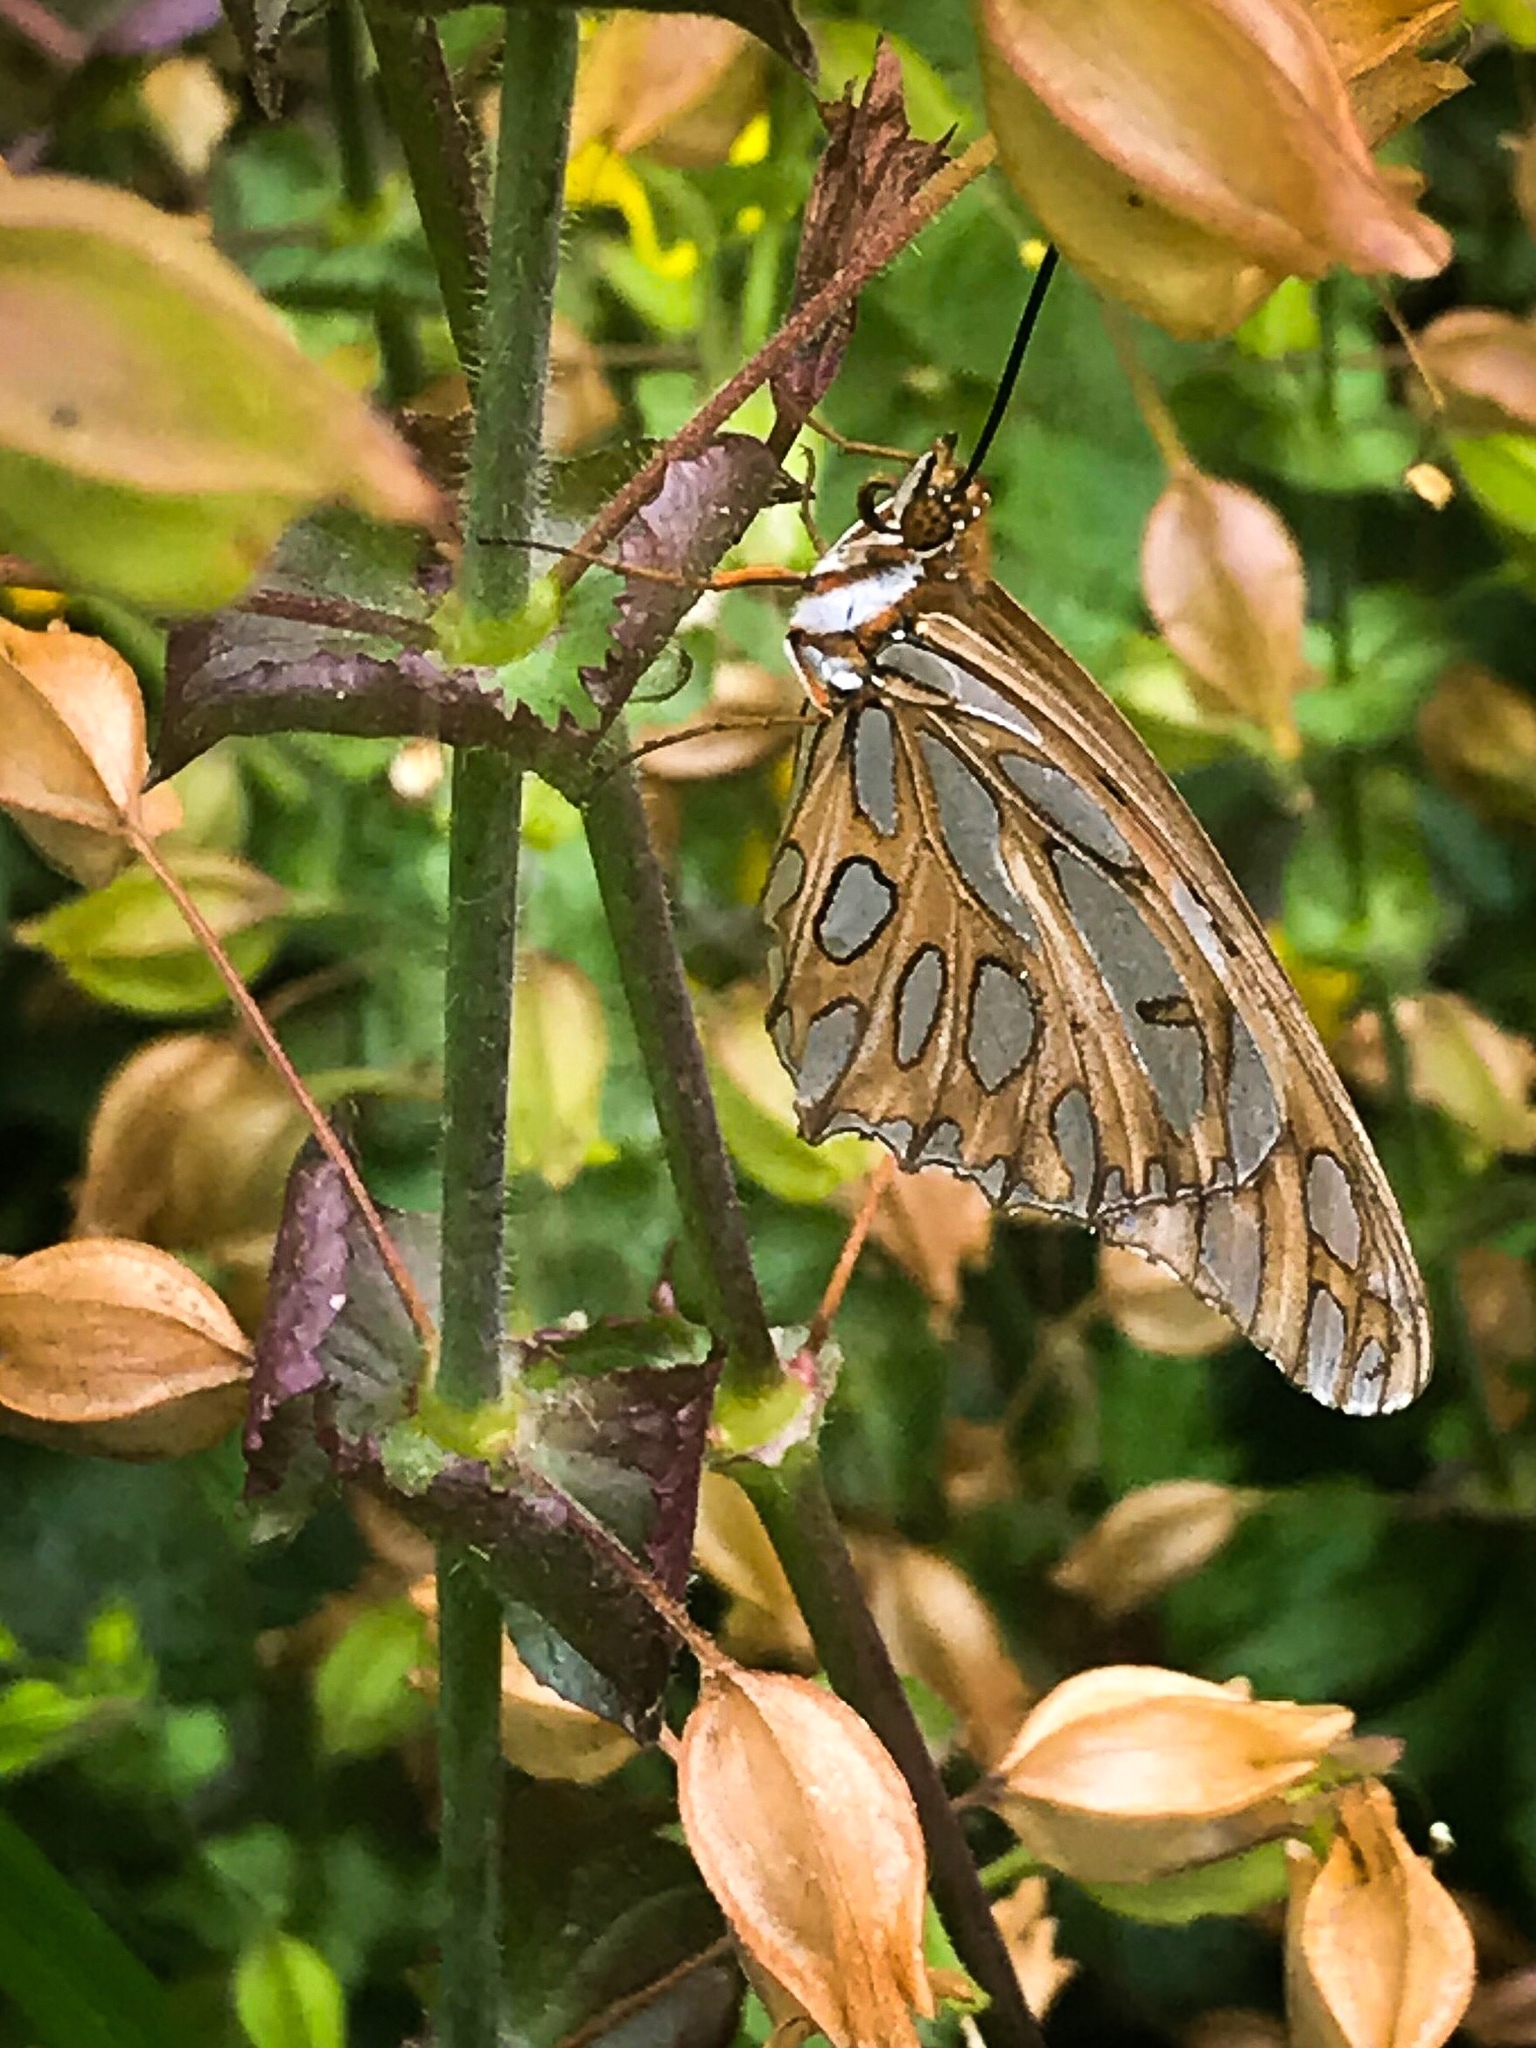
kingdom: Animalia
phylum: Arthropoda
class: Insecta
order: Lepidoptera
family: Nymphalidae
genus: Dione
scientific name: Dione vanillae
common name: Gulf fritillary
